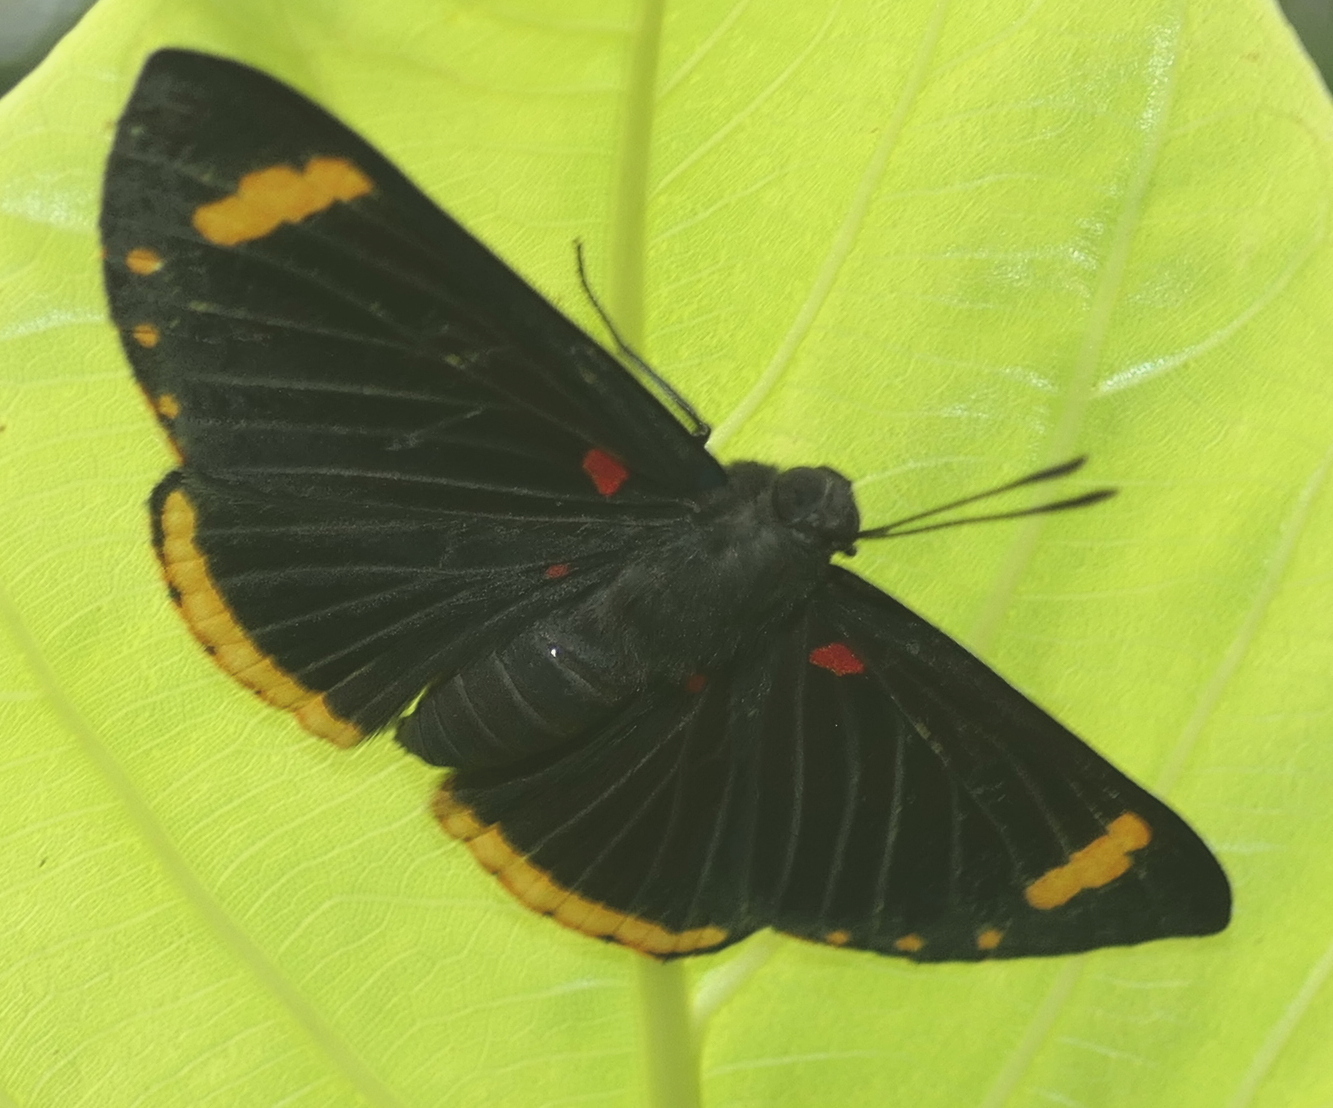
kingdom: Animalia
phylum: Arthropoda
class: Insecta
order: Lepidoptera
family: Lycaenidae
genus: Melanis
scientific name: Melanis xenia
